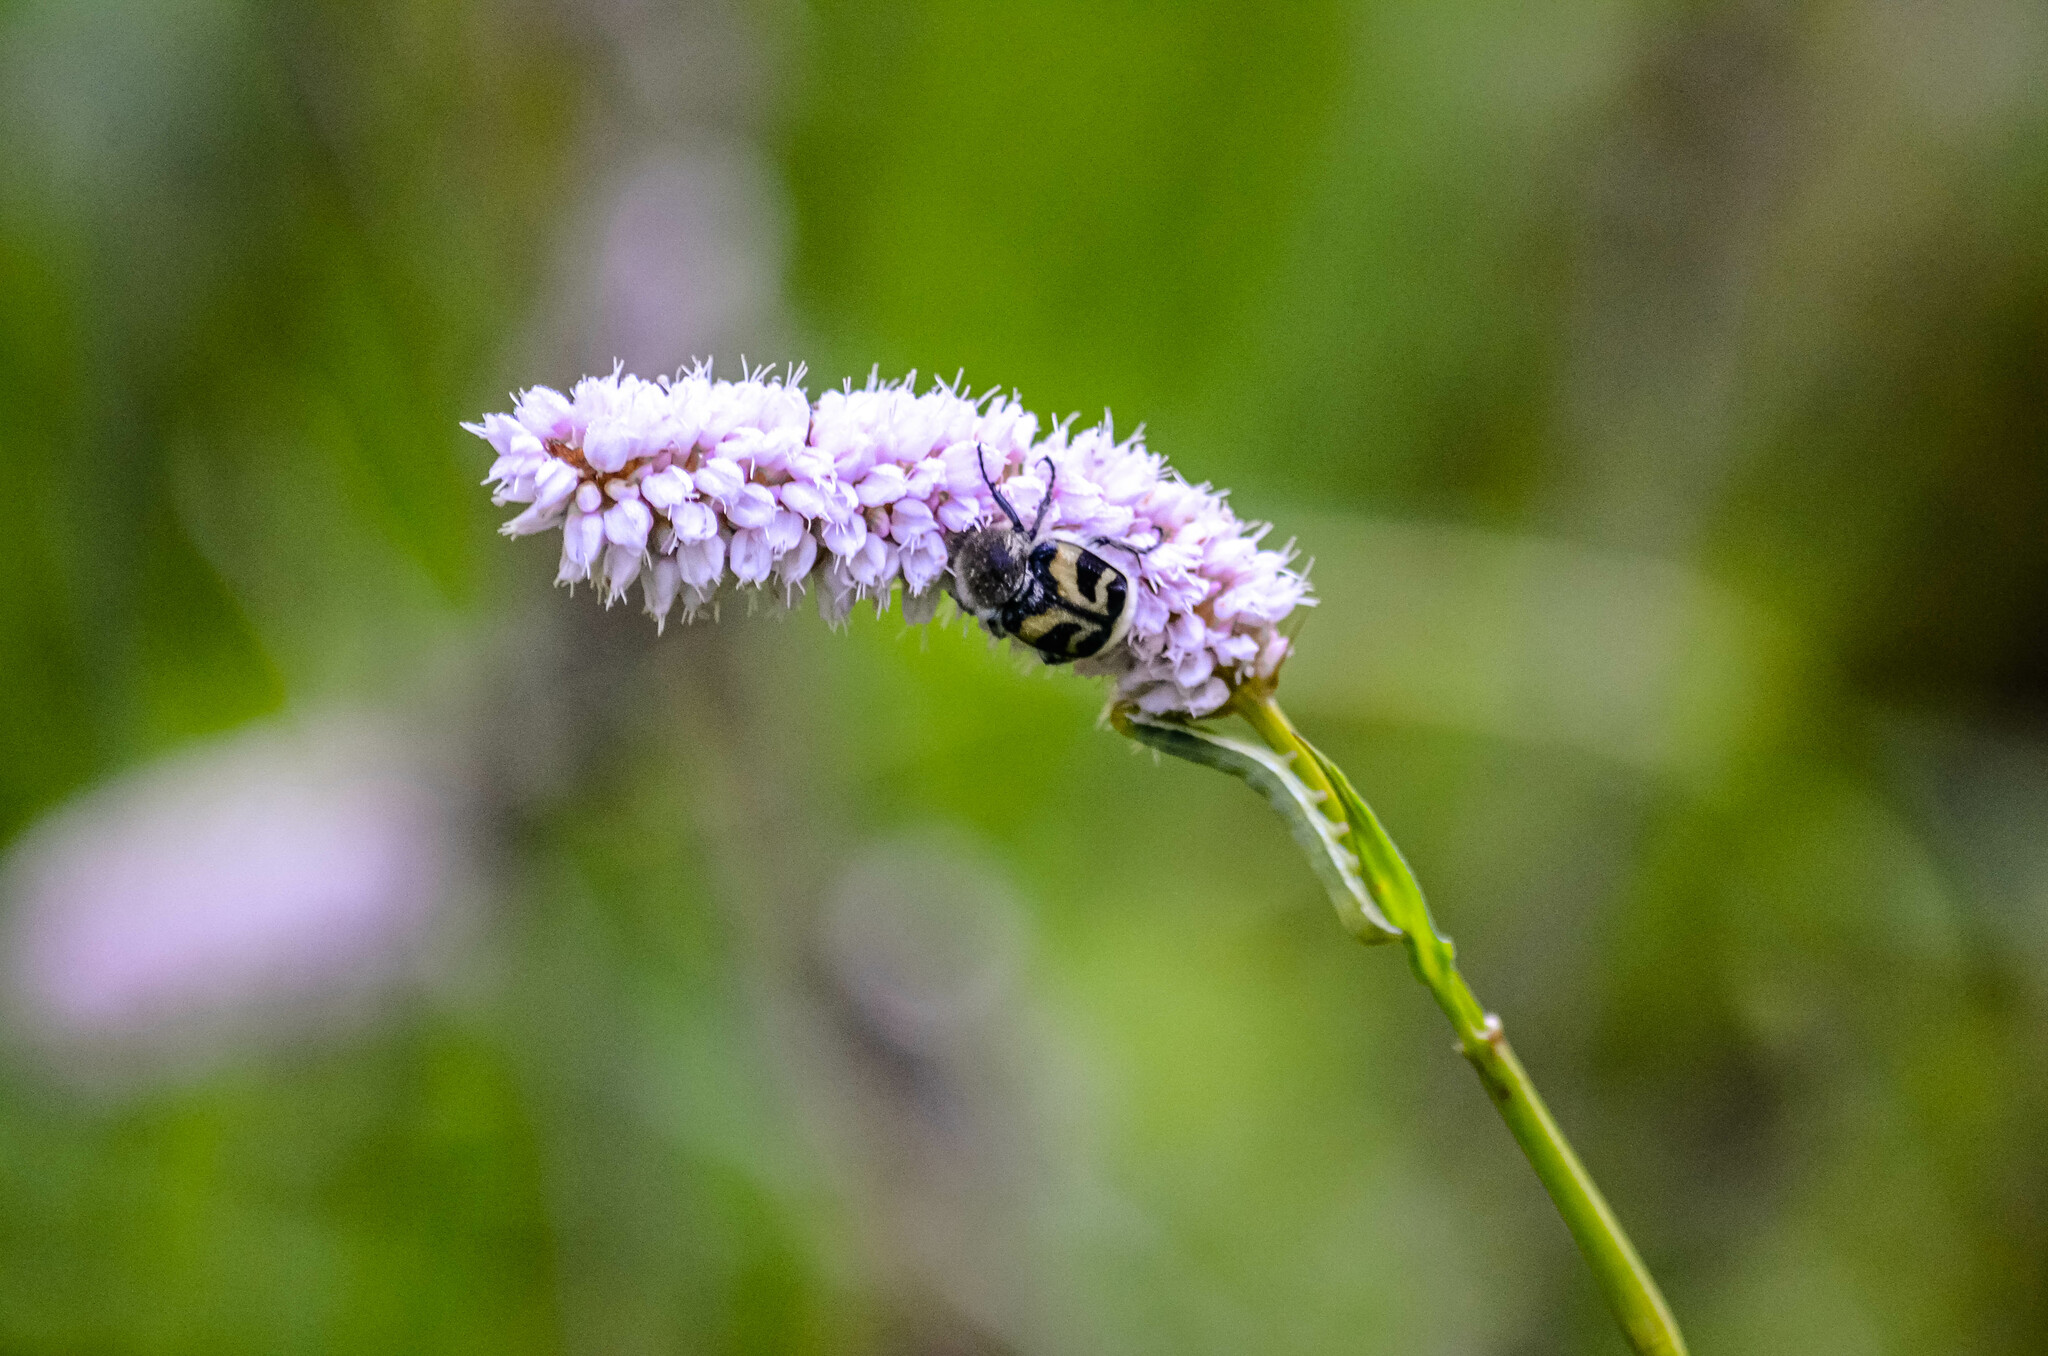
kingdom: Animalia
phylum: Arthropoda
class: Insecta
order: Coleoptera
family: Scarabaeidae
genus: Trichius
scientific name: Trichius fasciatus
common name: Bee beetle
